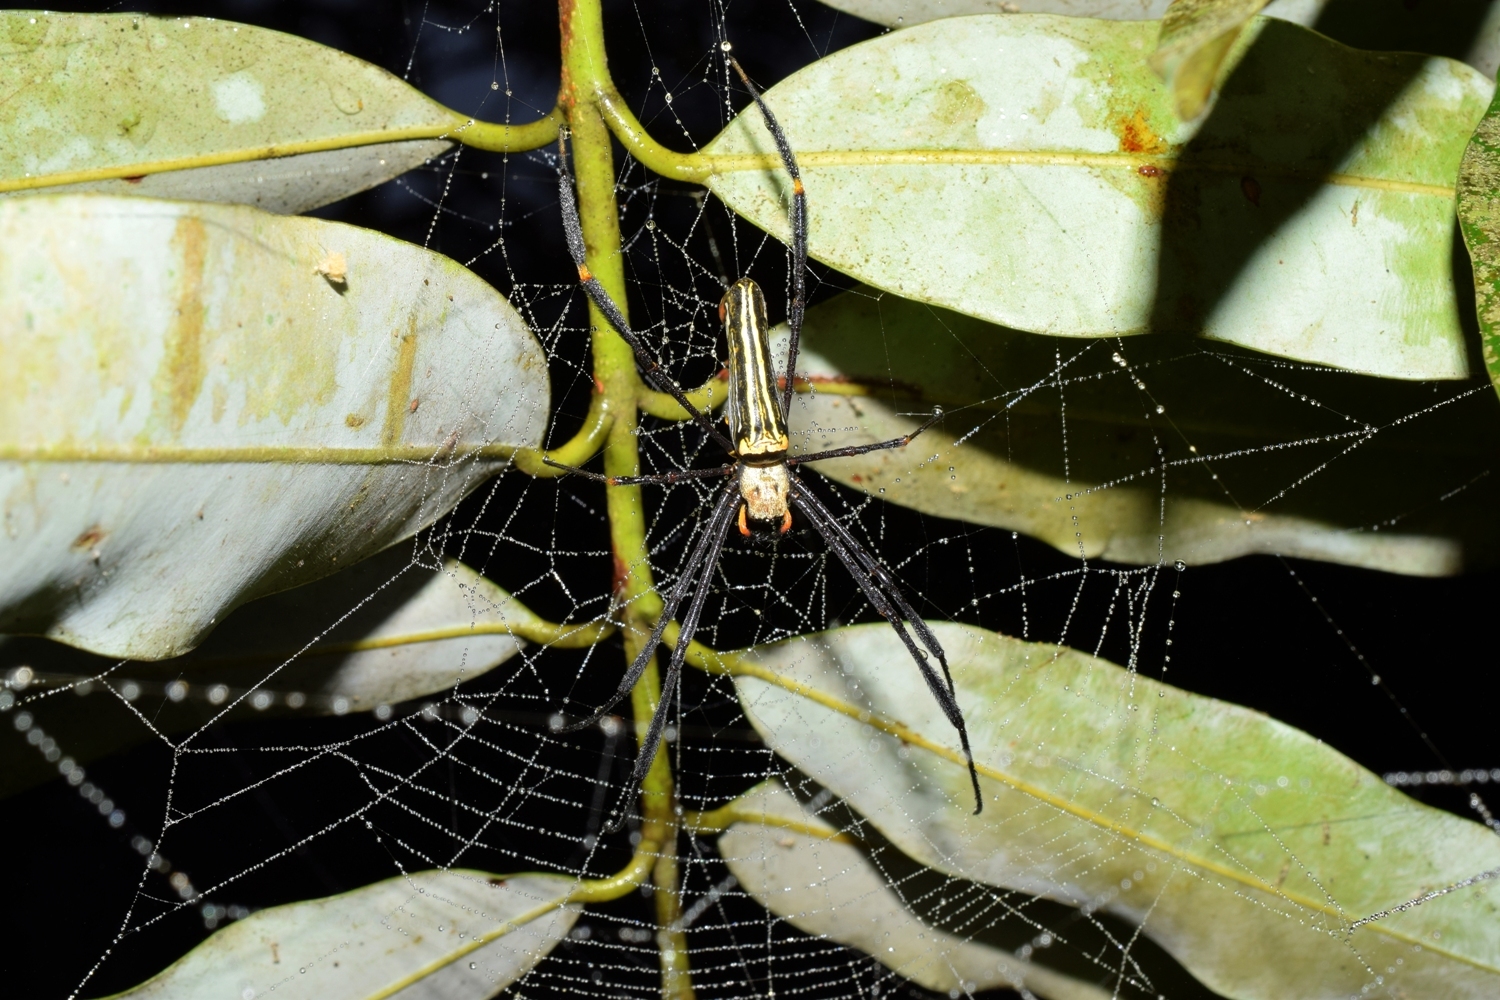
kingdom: Animalia
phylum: Arthropoda
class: Arachnida
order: Araneae
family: Araneidae
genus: Nephila
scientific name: Nephila pilipes
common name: Giant golden orb weaver
